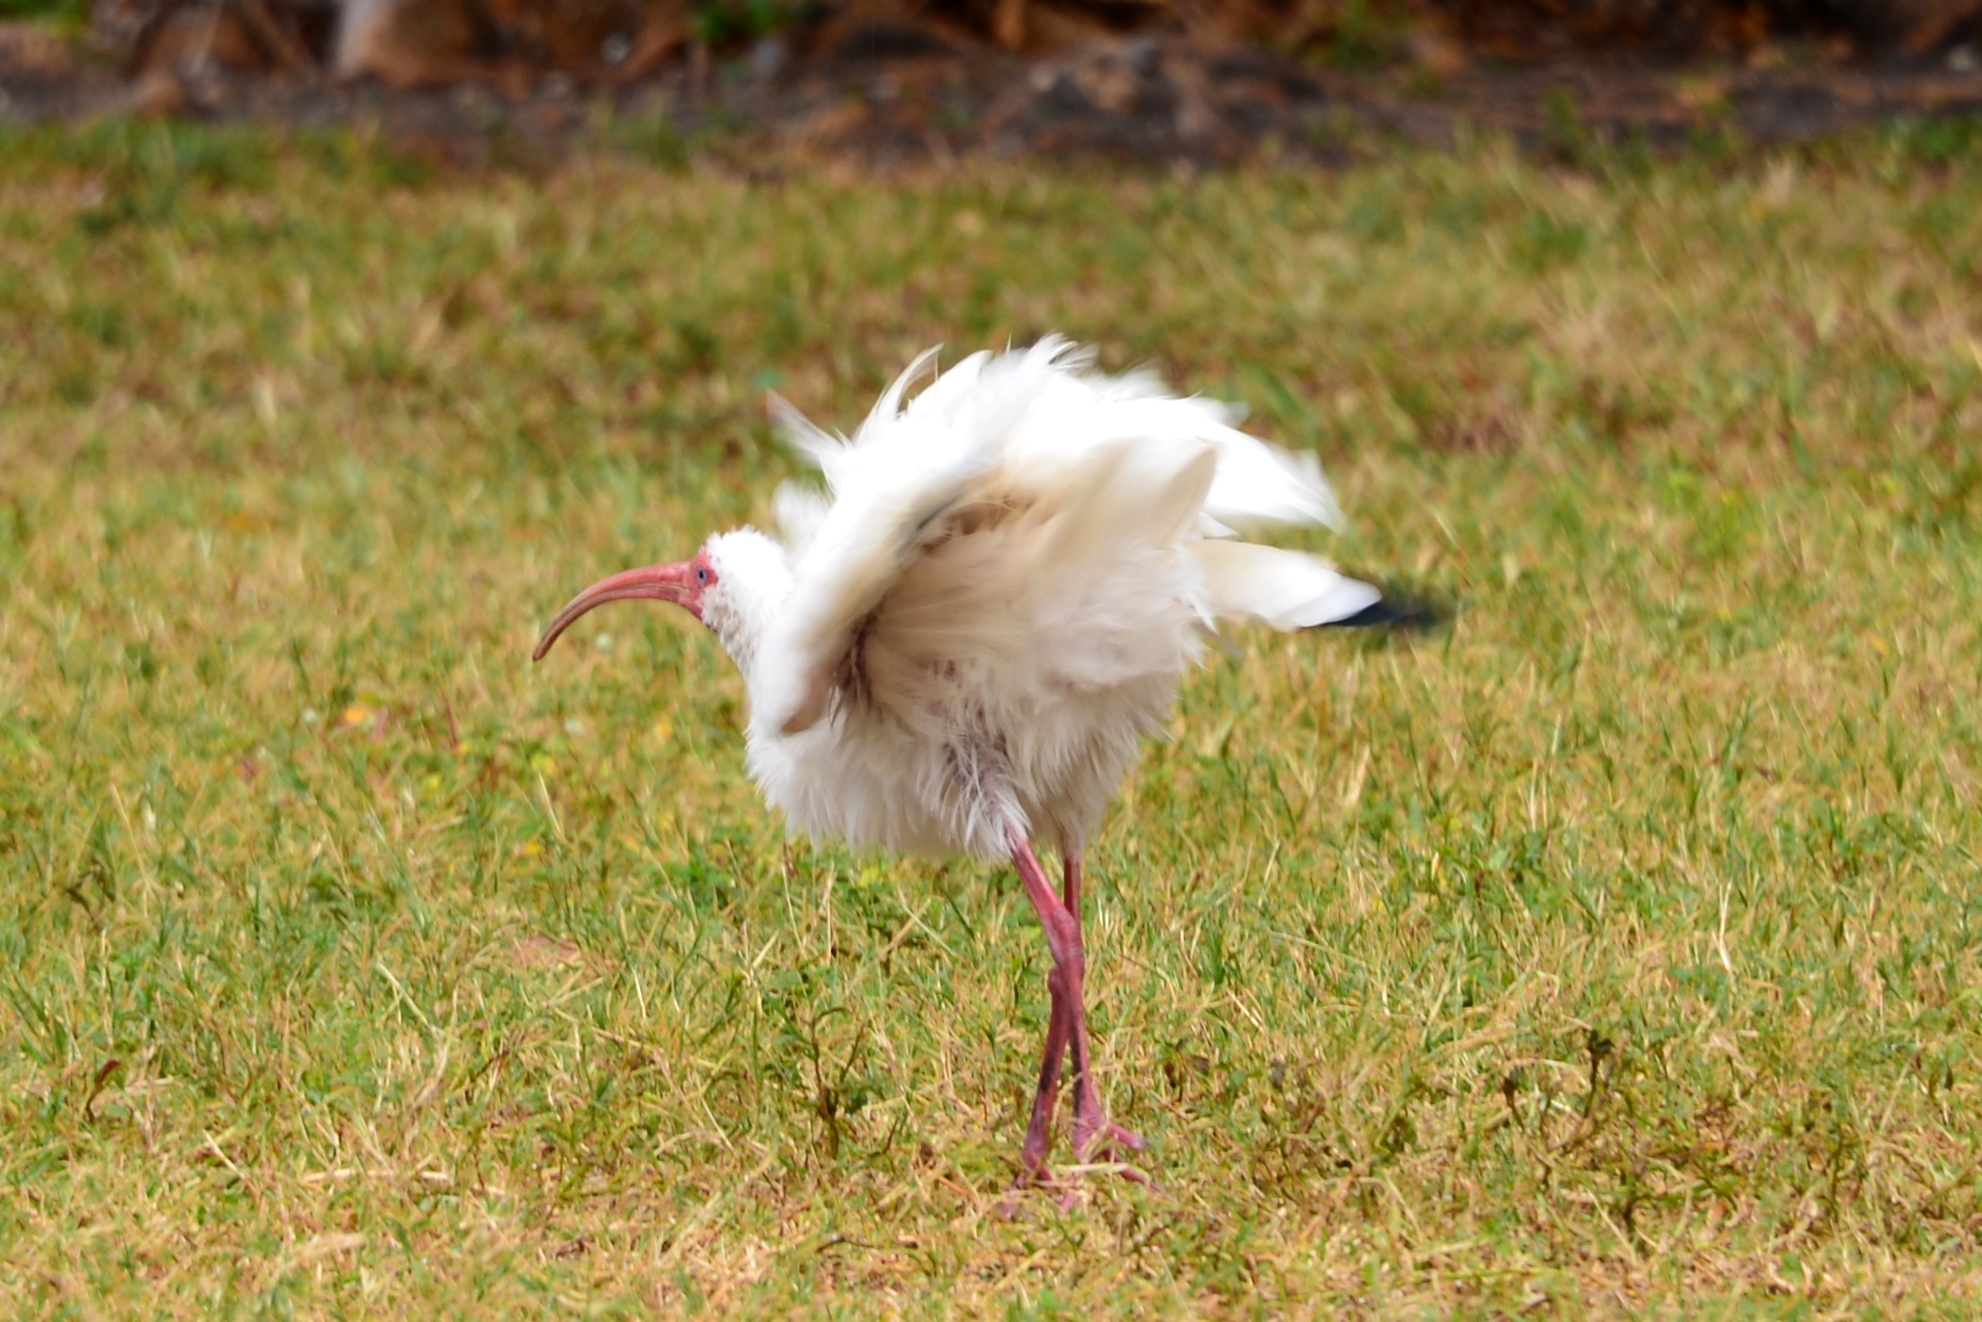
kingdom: Animalia
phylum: Chordata
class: Aves
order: Pelecaniformes
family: Threskiornithidae
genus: Eudocimus
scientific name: Eudocimus albus
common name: White ibis
